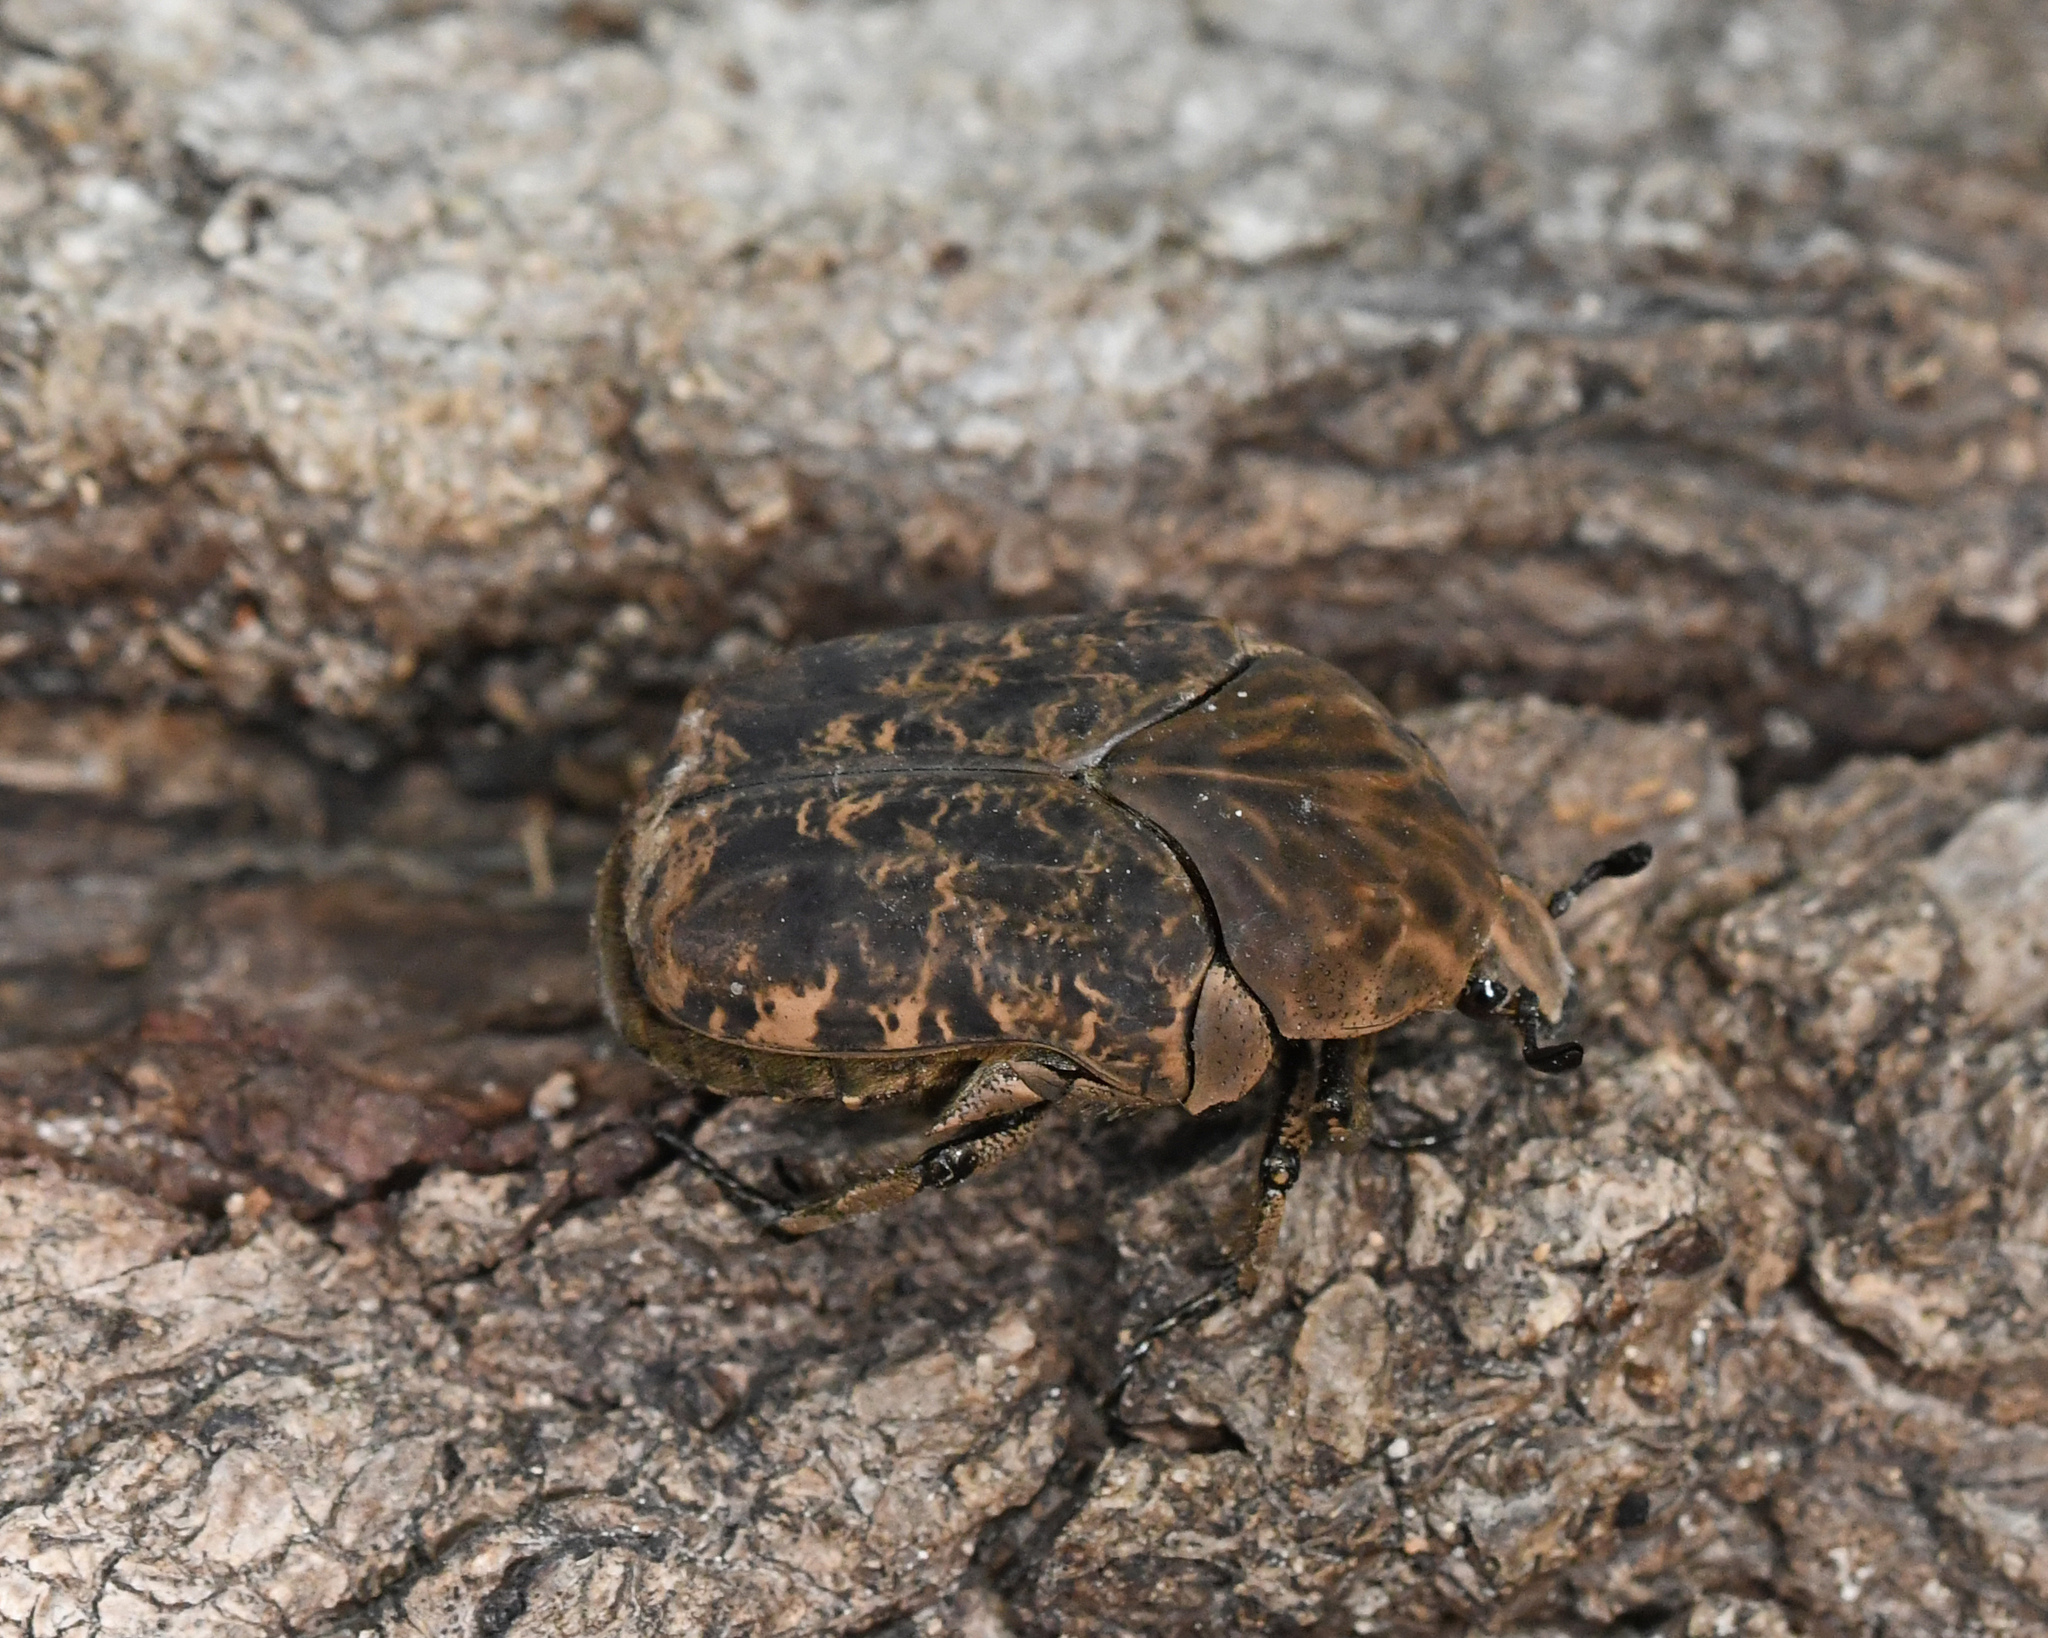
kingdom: Animalia
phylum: Arthropoda
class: Insecta
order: Coleoptera
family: Scarabaeidae
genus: Gymnetis
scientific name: Gymnetis undata
